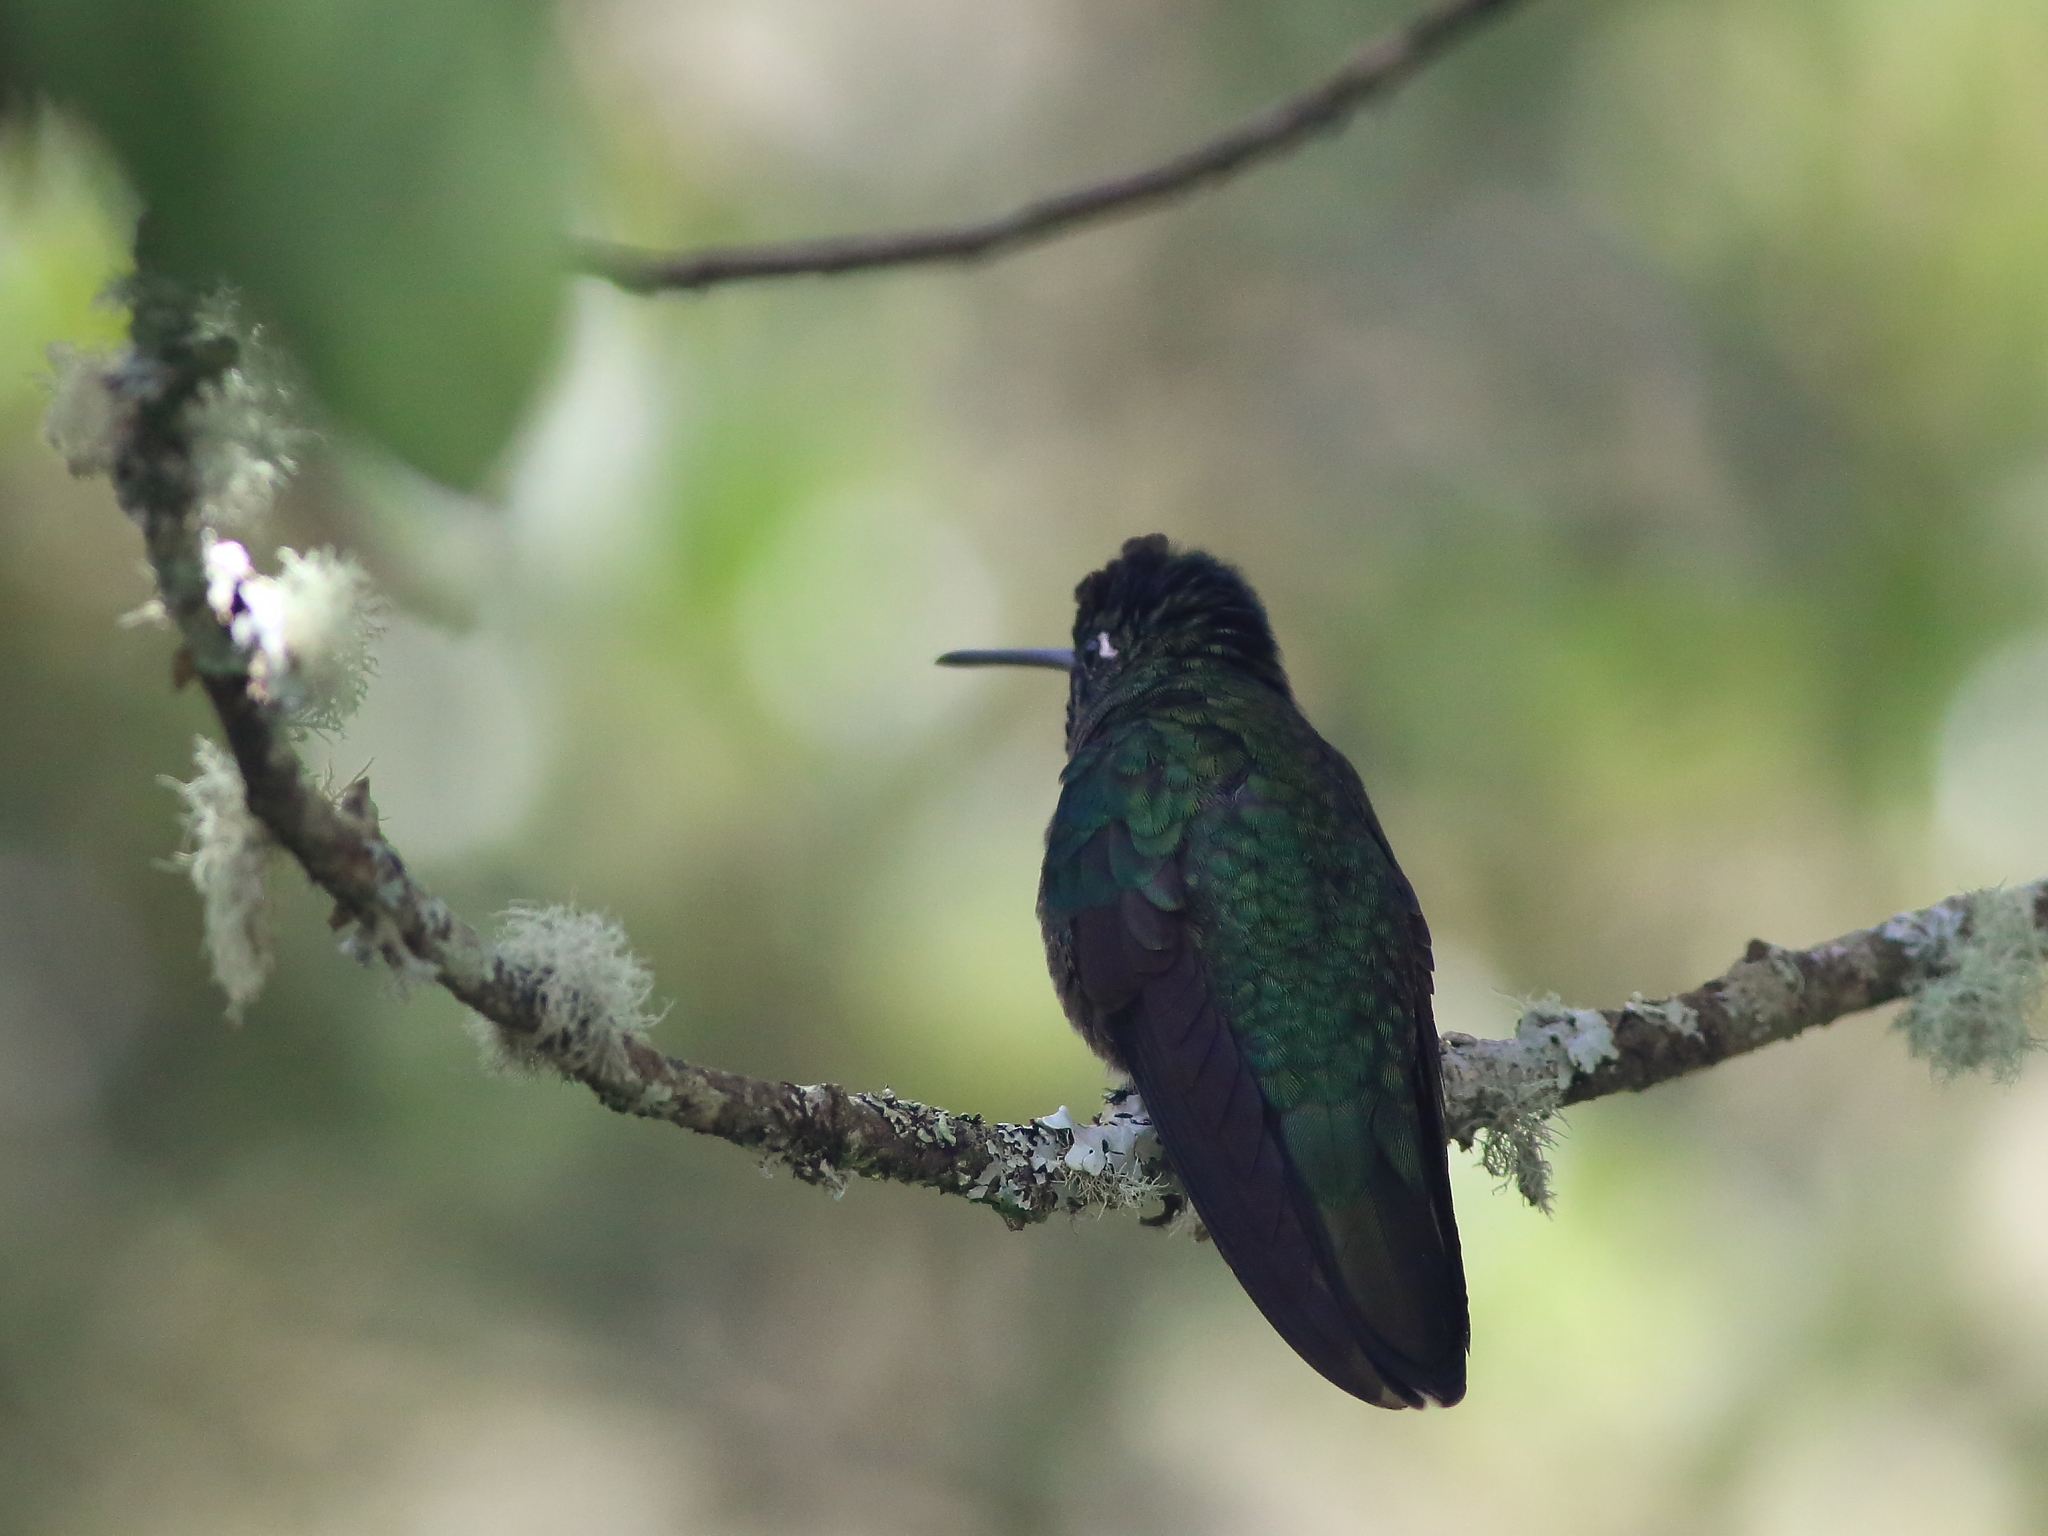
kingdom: Animalia
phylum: Chordata
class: Aves
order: Apodiformes
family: Trochilidae
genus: Eugenes
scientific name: Eugenes spectabilis
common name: Talamanca hummingbird
